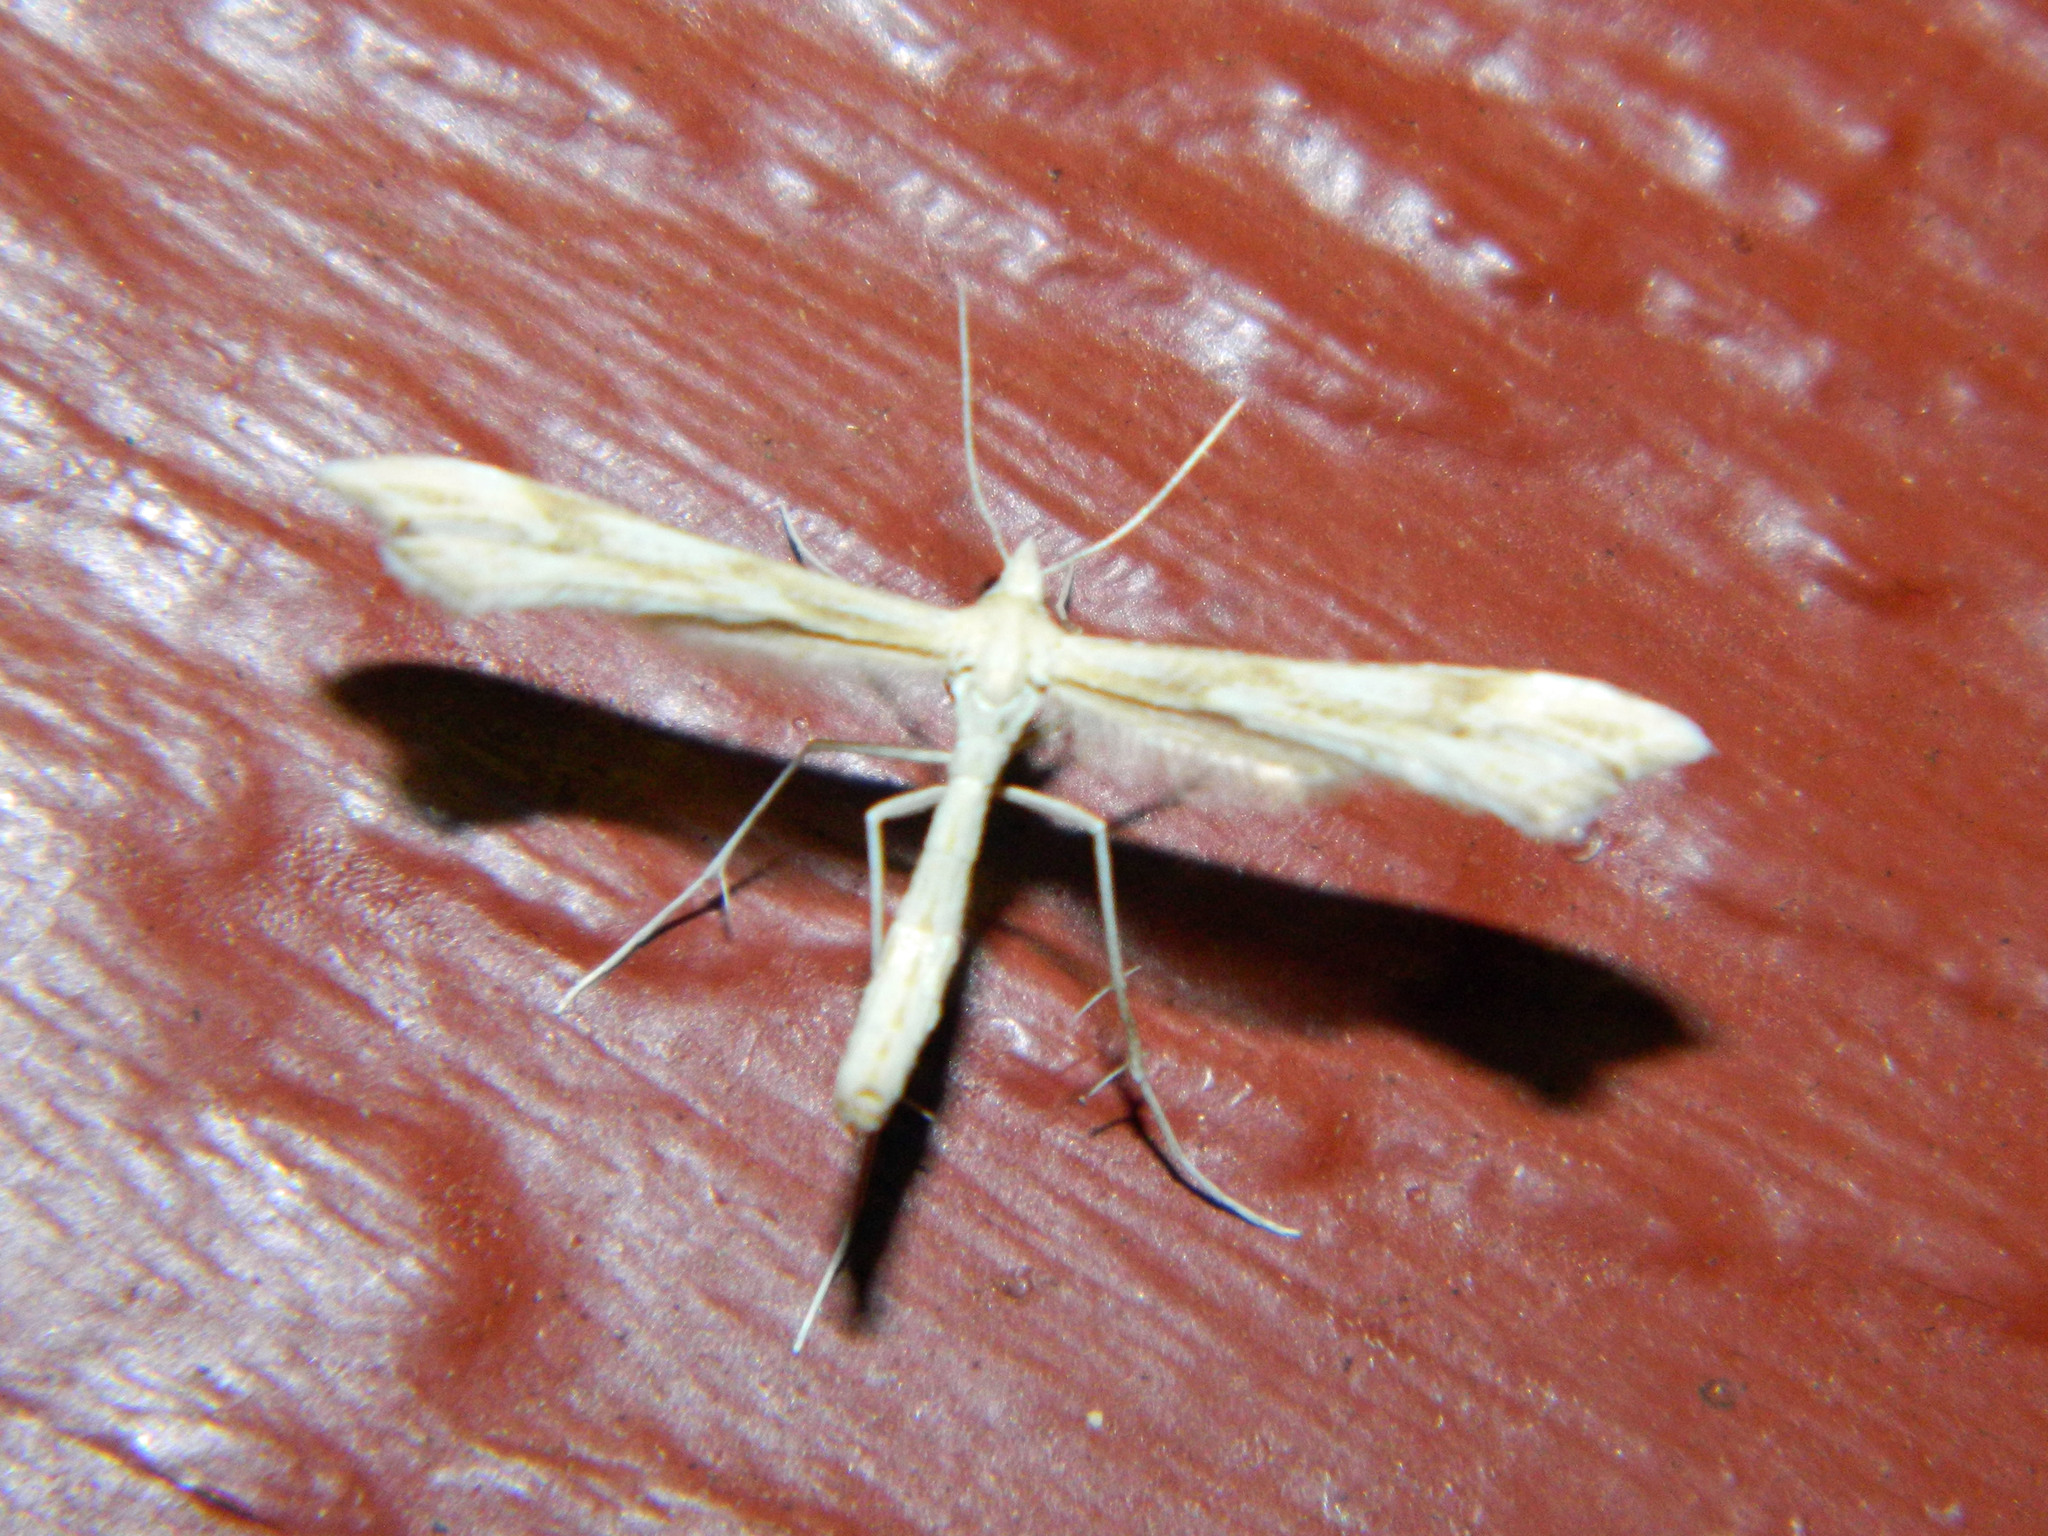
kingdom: Animalia
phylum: Arthropoda
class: Insecta
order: Lepidoptera
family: Pterophoridae
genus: Gillmeria
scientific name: Gillmeria pallidactyla
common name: Yarrow plume
